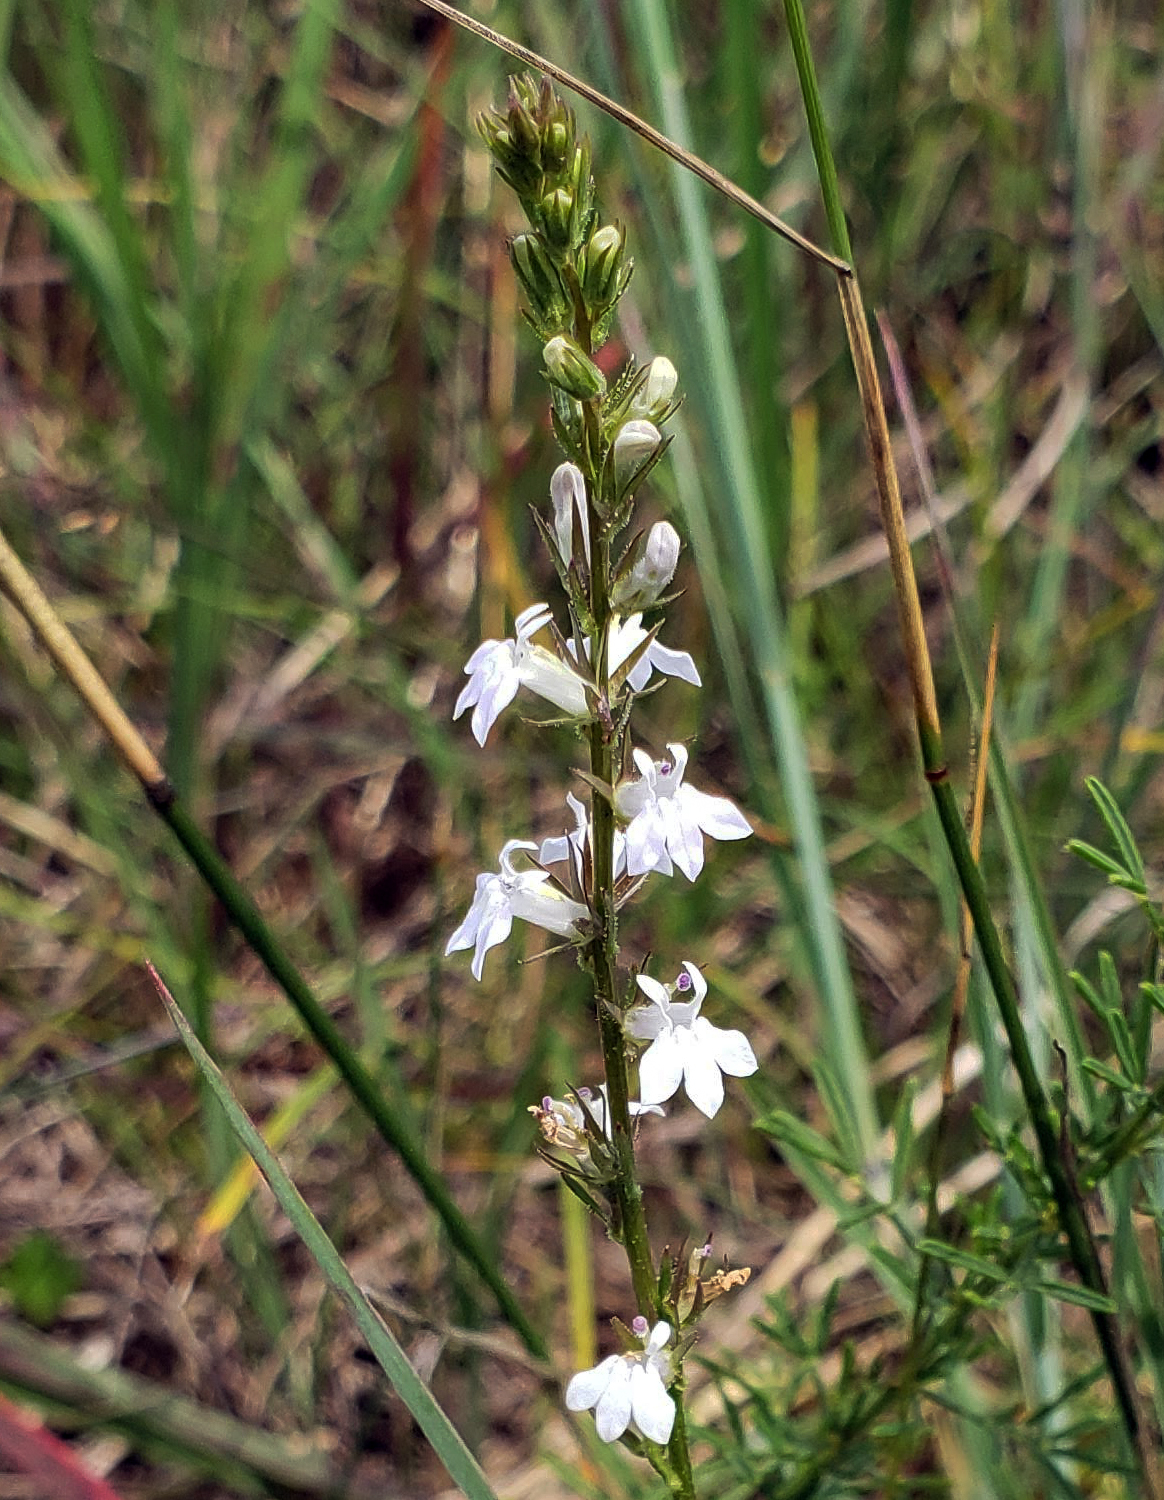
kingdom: Plantae
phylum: Tracheophyta
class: Magnoliopsida
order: Asterales
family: Campanulaceae
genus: Lobelia
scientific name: Lobelia spicata
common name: Pale-spike lobelia
